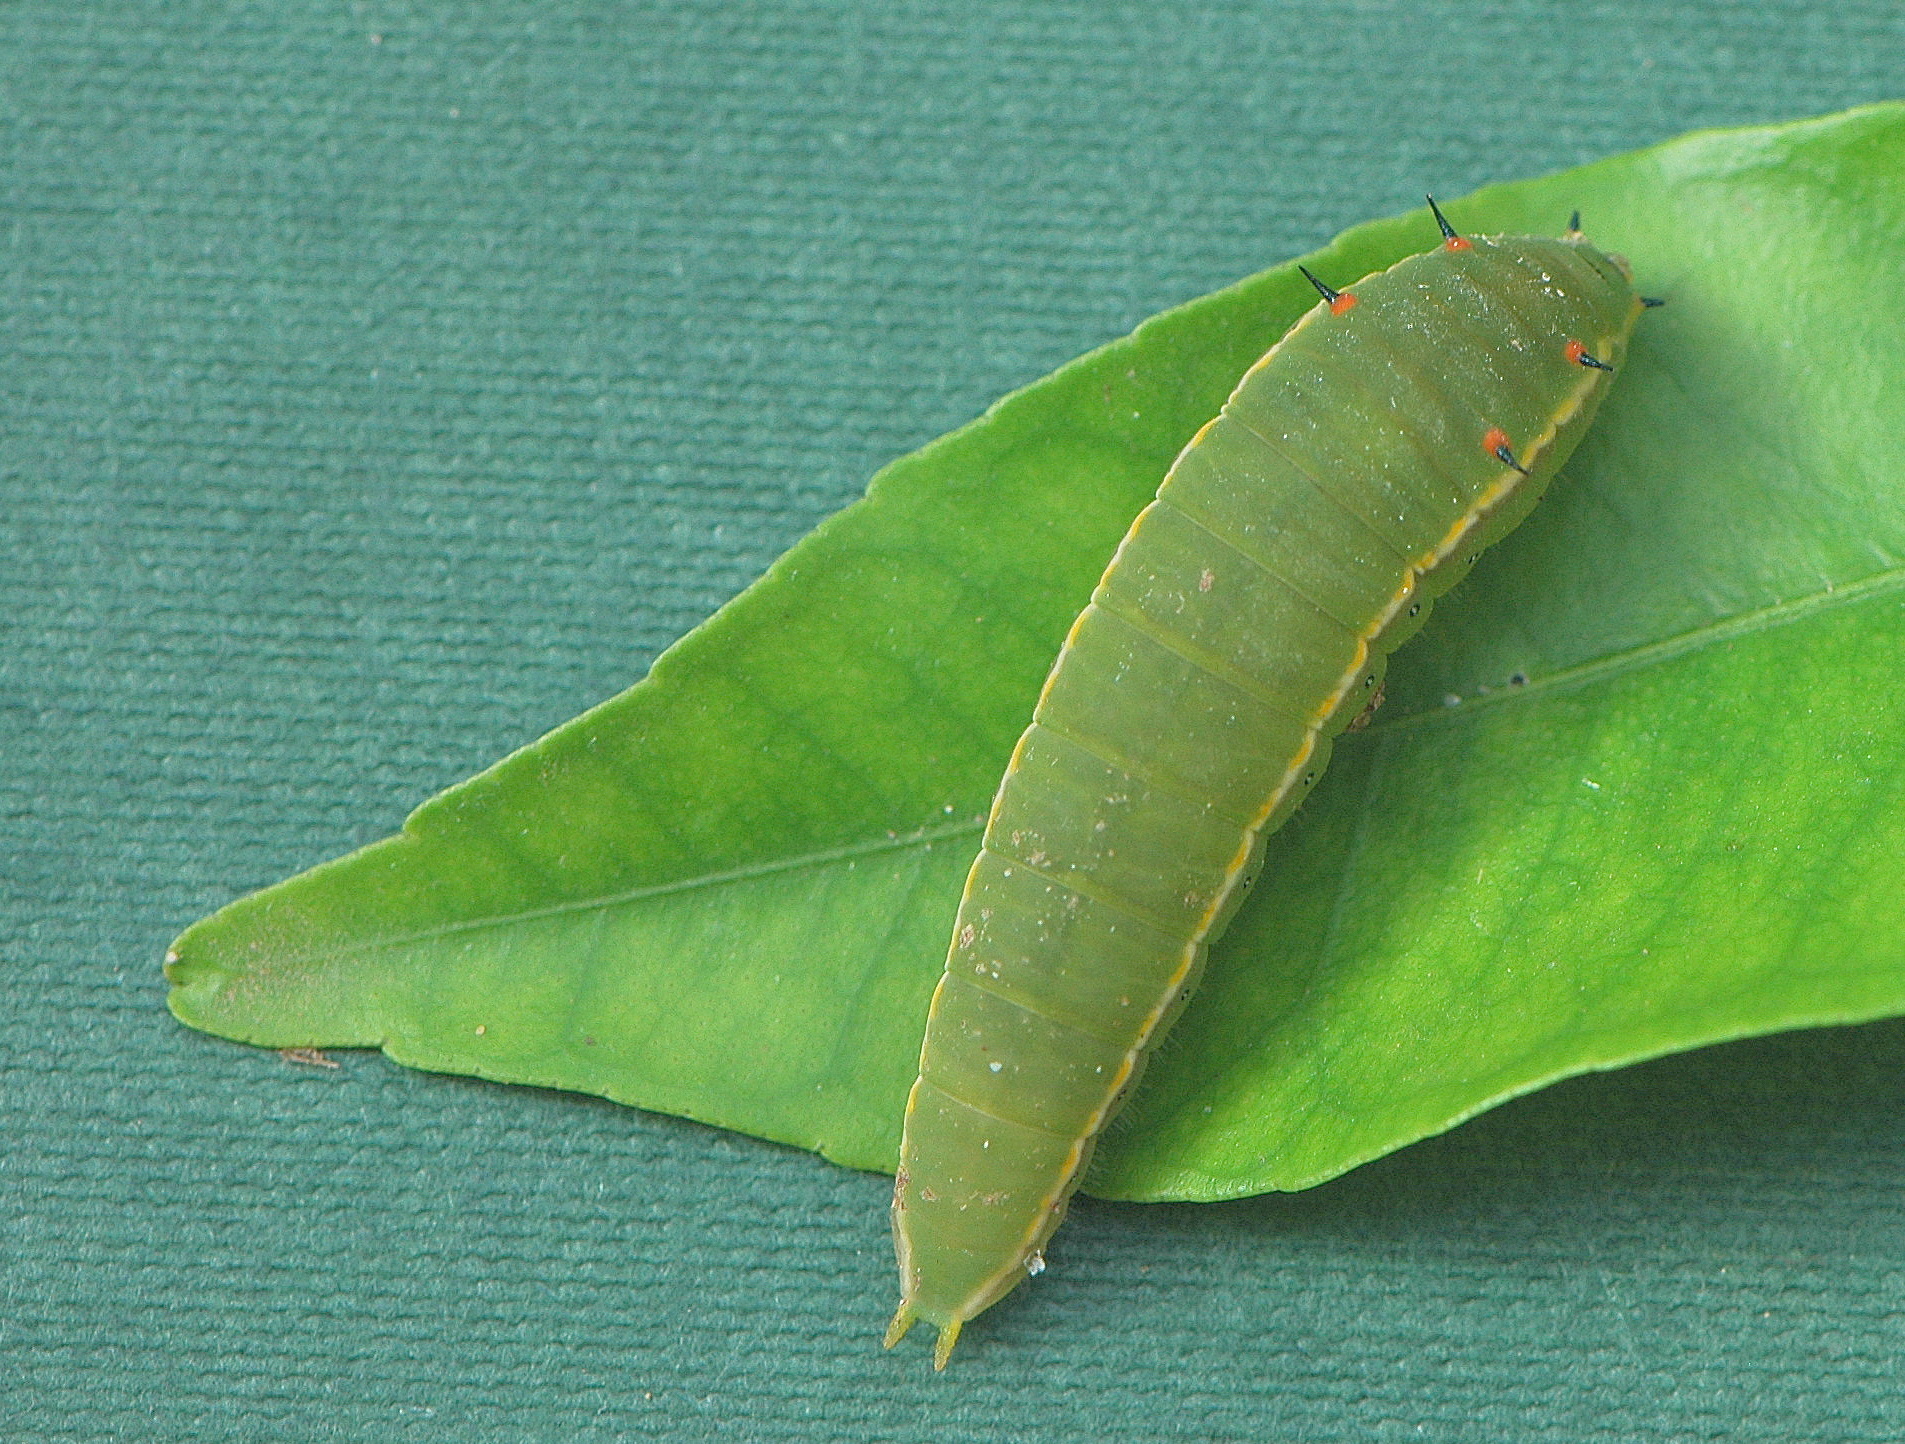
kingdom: Animalia
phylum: Arthropoda
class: Insecta
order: Lepidoptera
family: Papilionidae
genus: Graphium
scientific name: Graphium angolanus
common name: Angola white-lady swordtail
